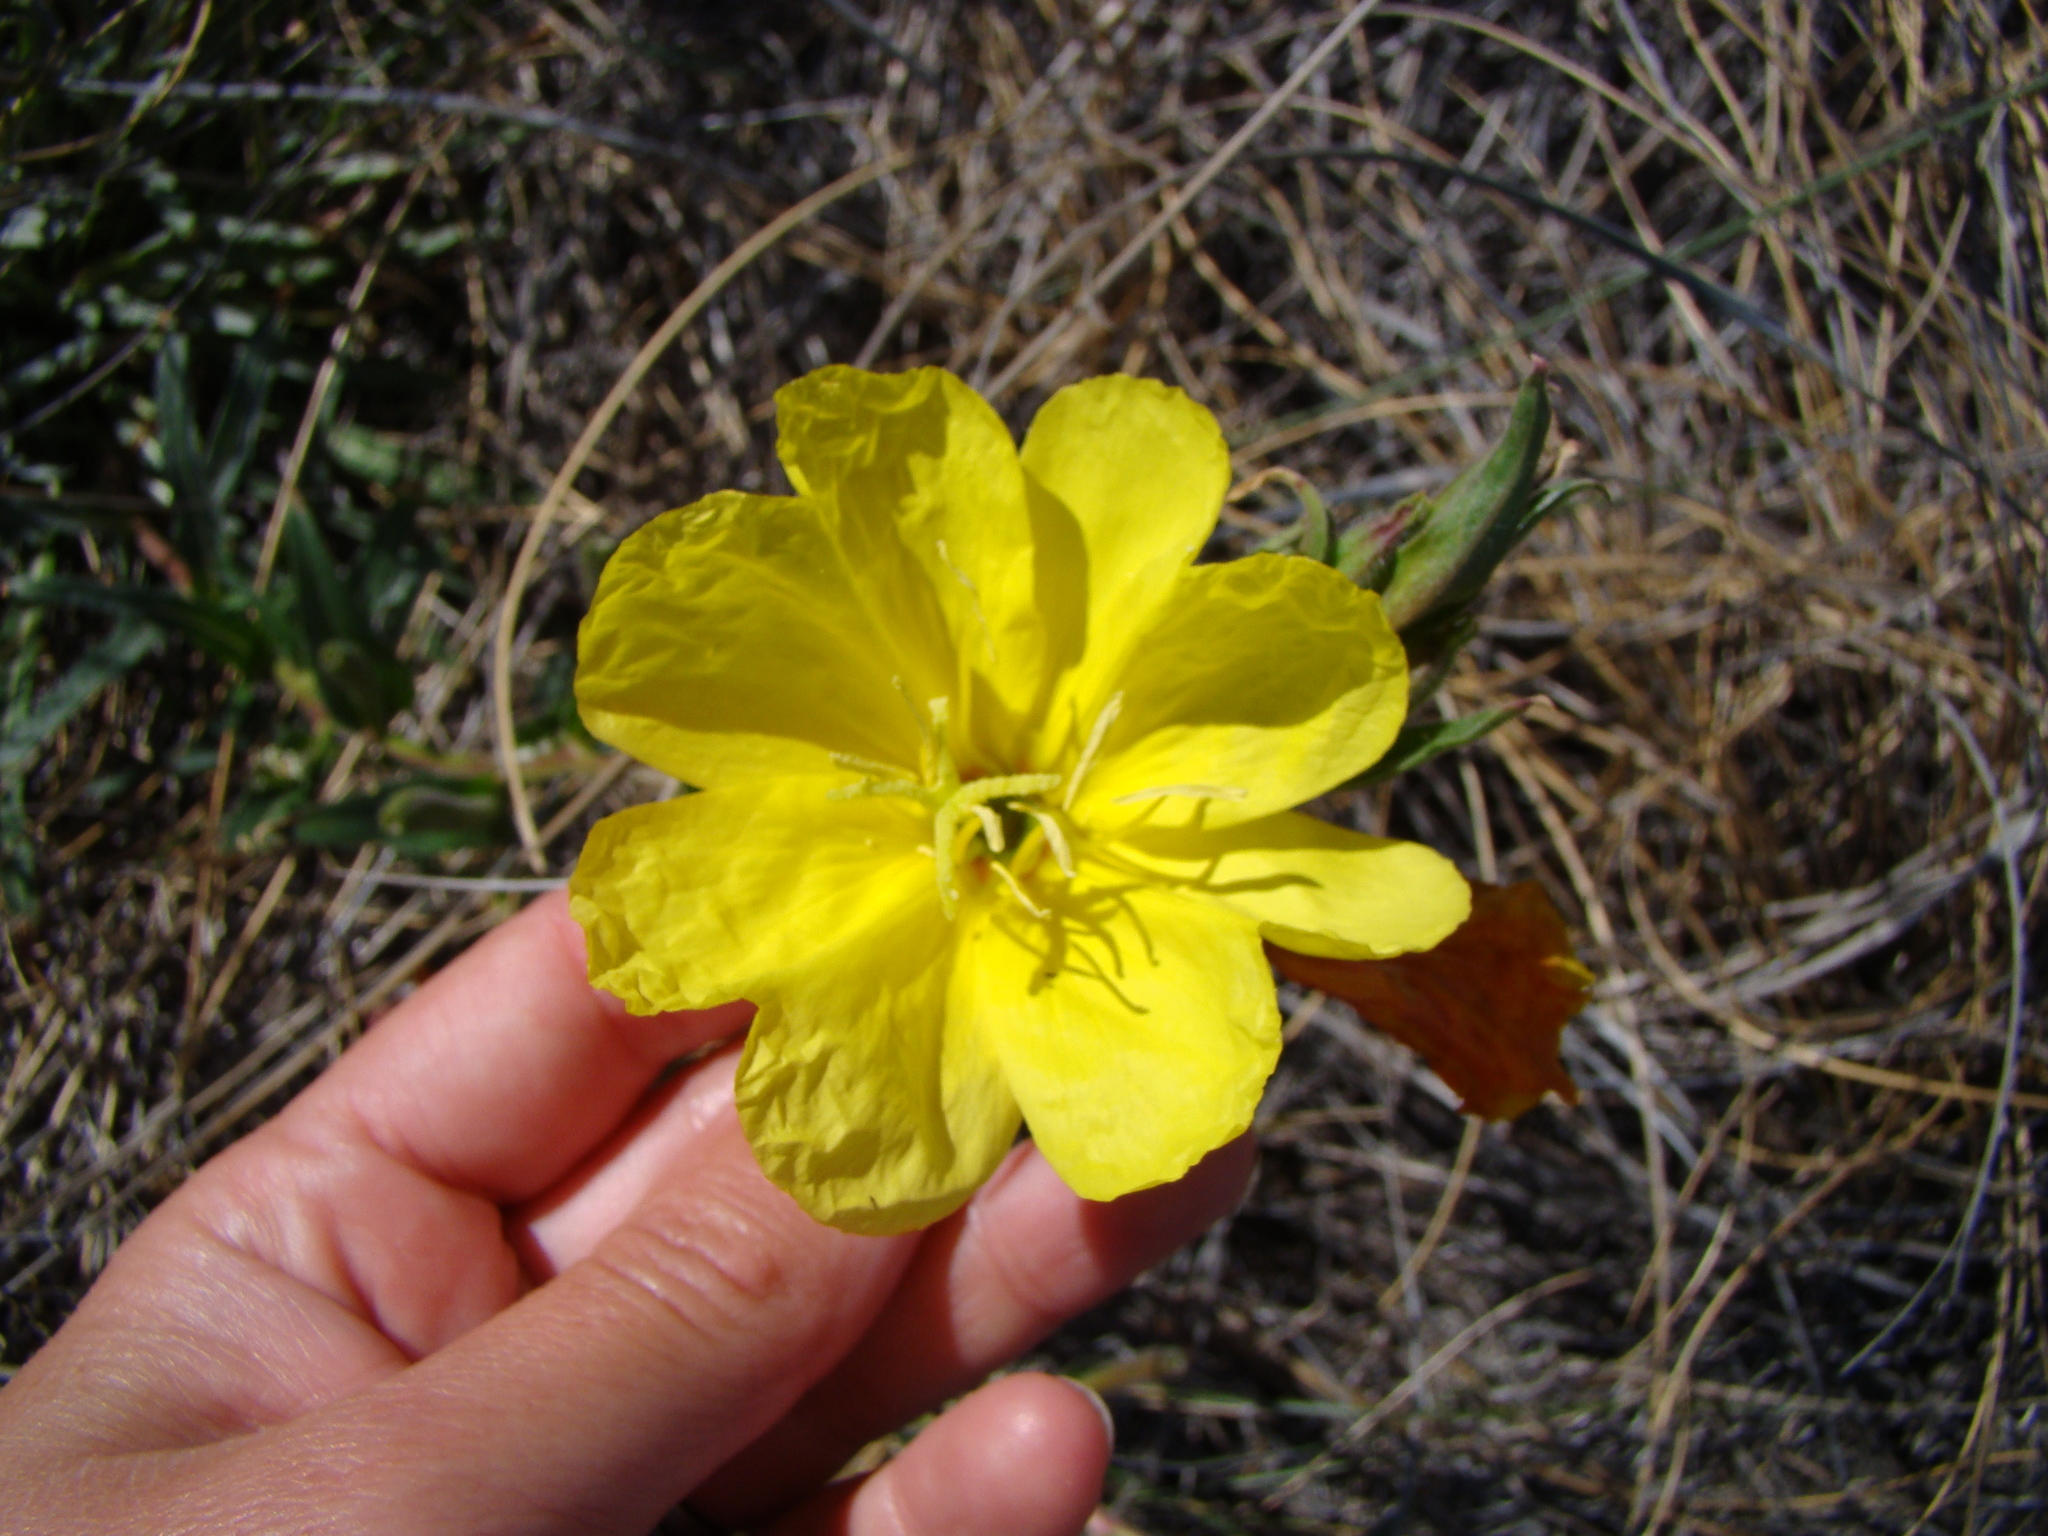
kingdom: Plantae
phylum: Tracheophyta
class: Magnoliopsida
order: Myrtales
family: Onagraceae
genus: Oenothera
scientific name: Oenothera stricta
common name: Fragrant evening-primrose
